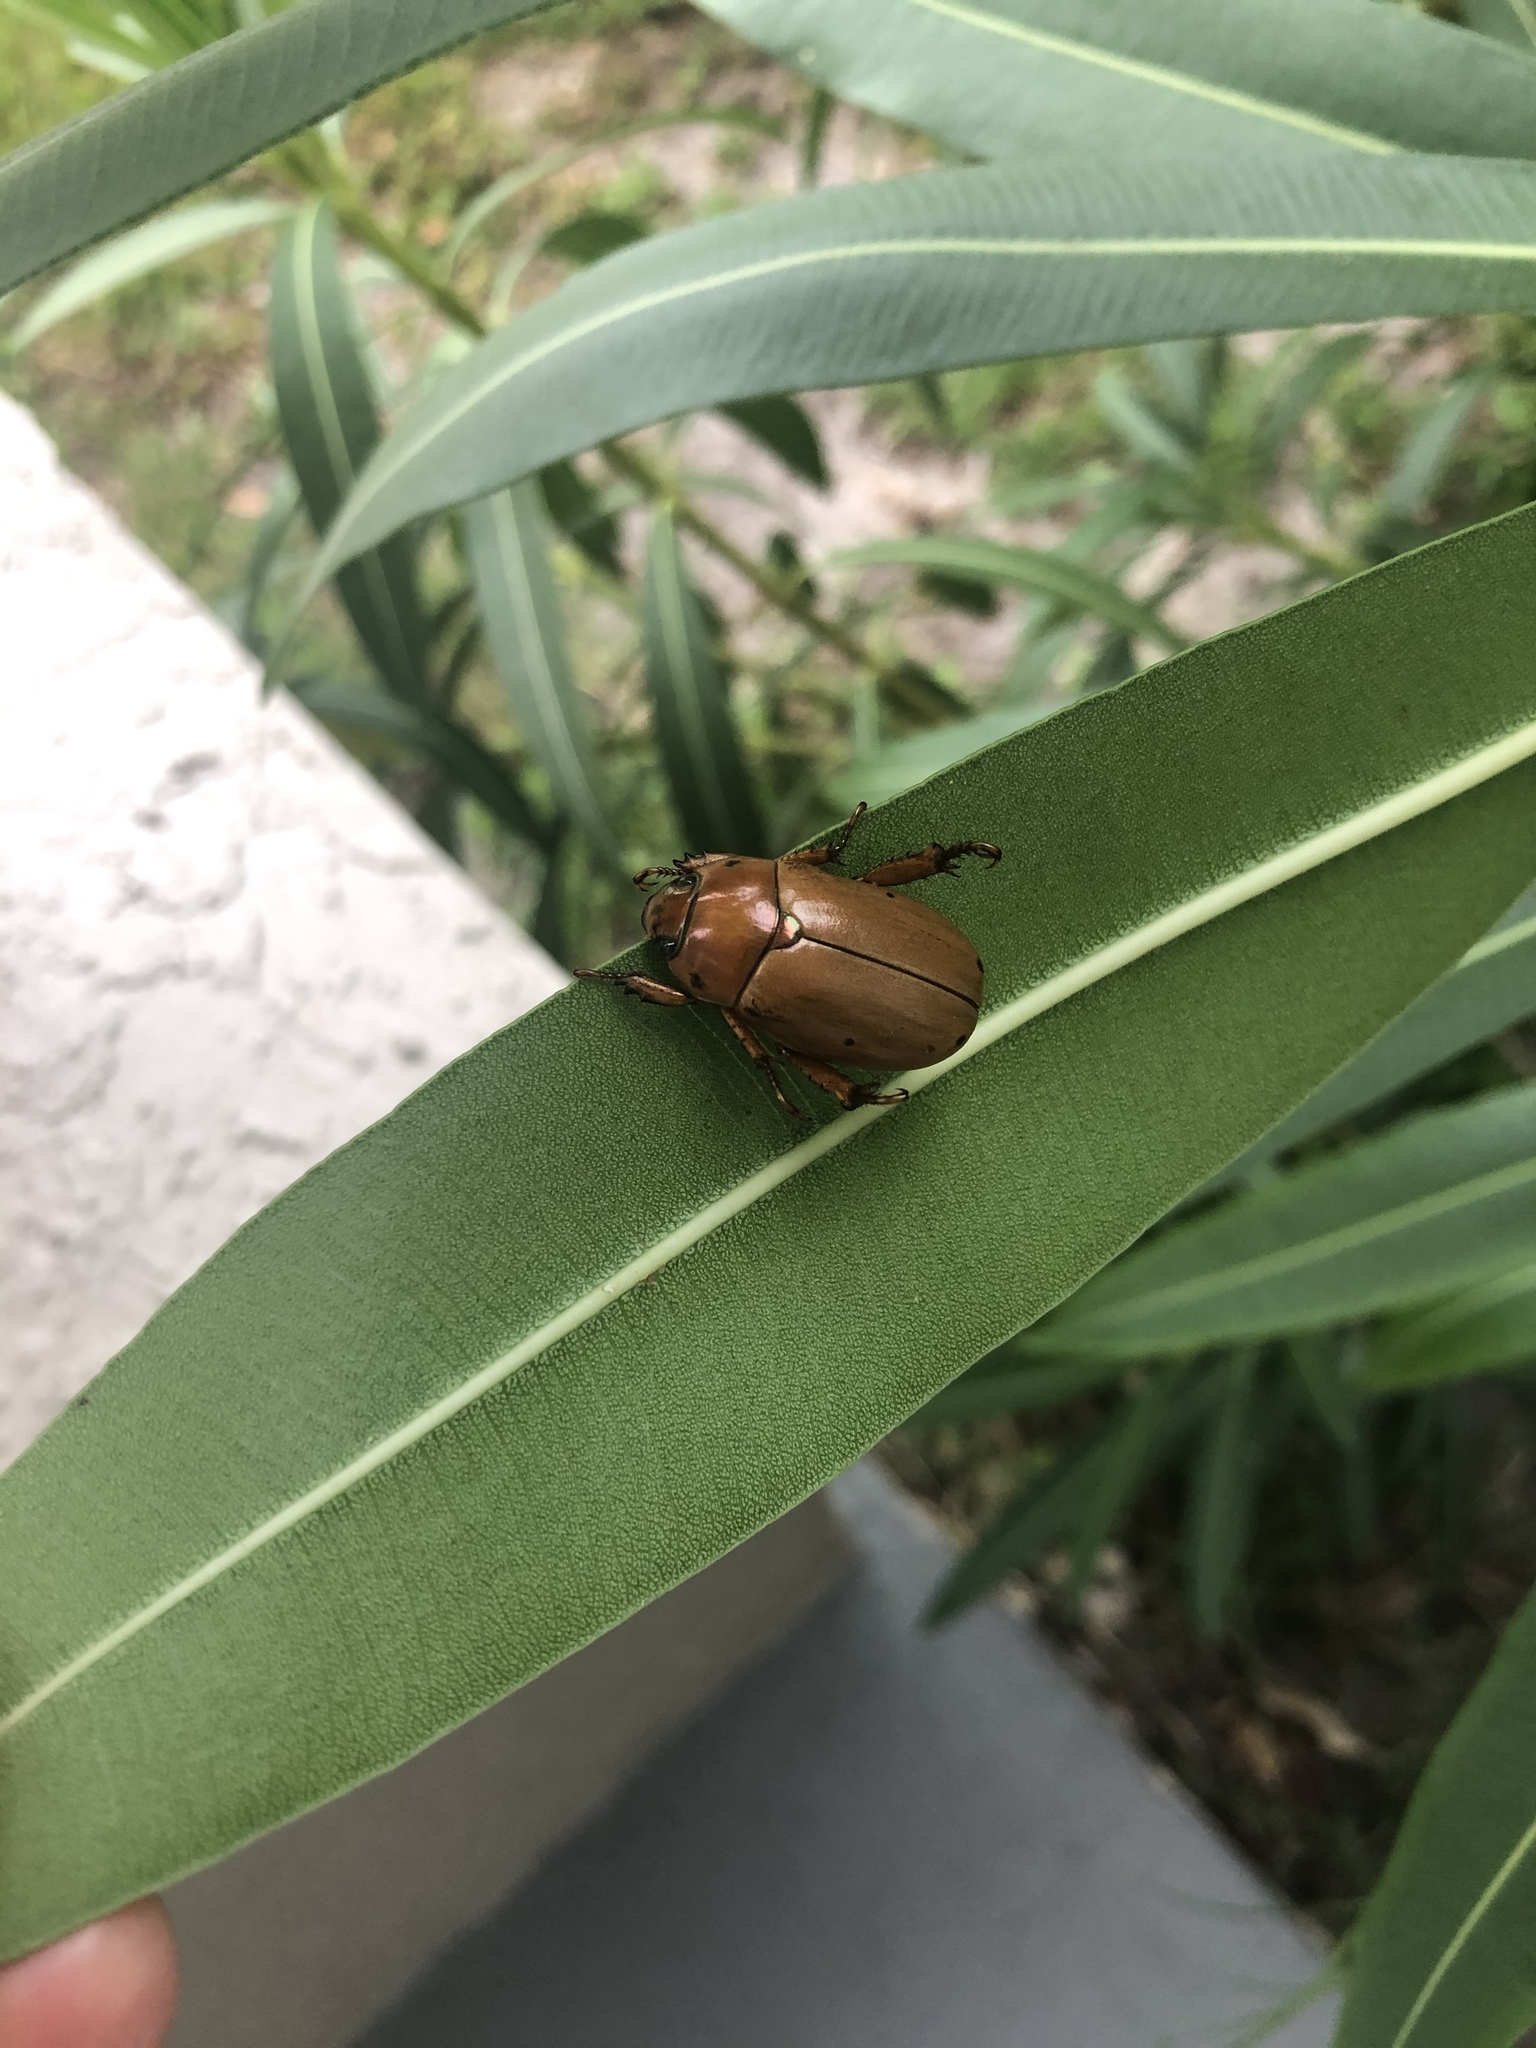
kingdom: Animalia
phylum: Arthropoda
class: Insecta
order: Coleoptera
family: Scarabaeidae
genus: Pelidnota
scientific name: Pelidnota punctata
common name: Grapevine beetle
